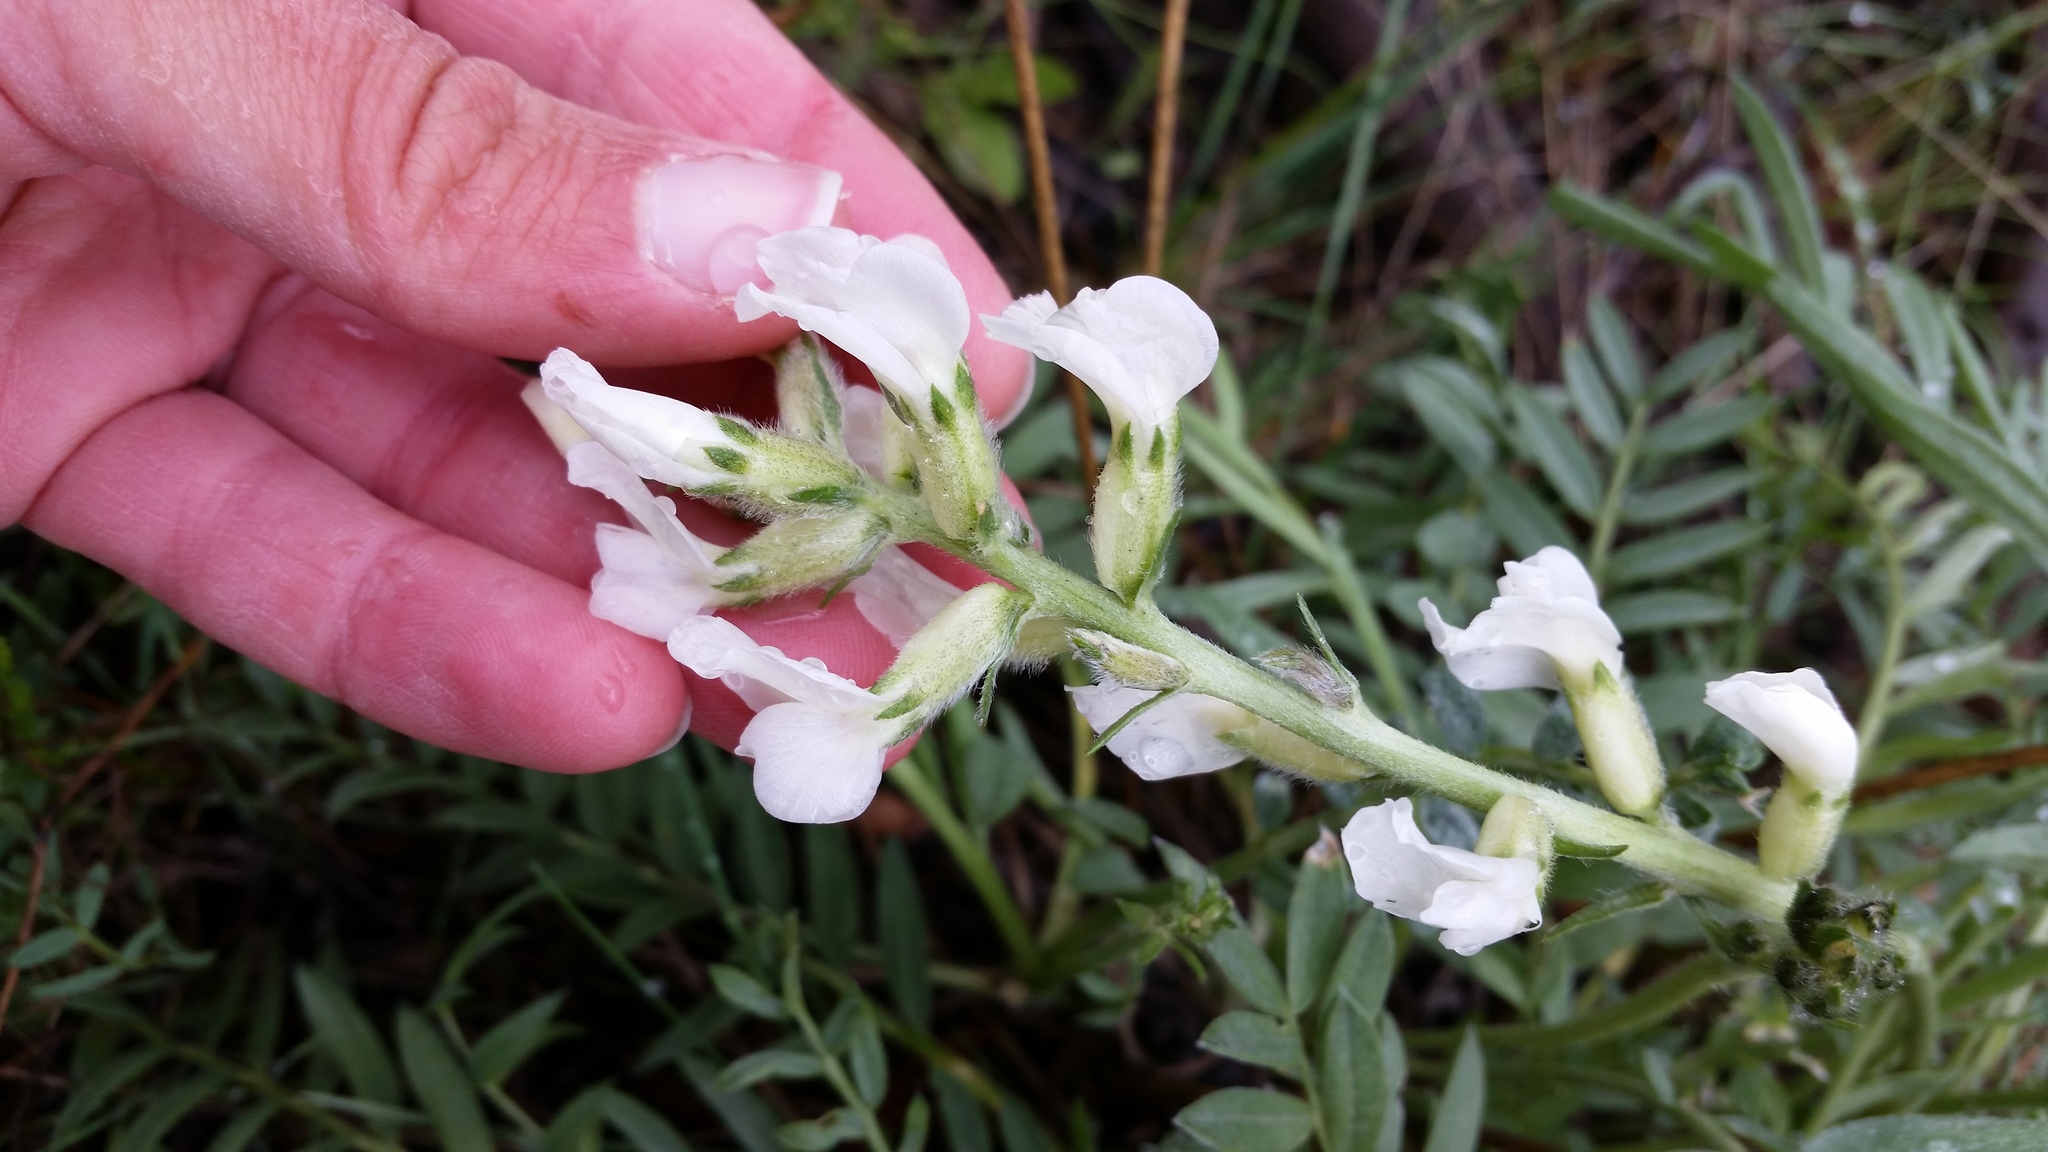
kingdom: Plantae
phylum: Tracheophyta
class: Magnoliopsida
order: Fabales
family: Fabaceae
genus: Oxytropis
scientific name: Oxytropis sericea
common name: Silky locoweed
